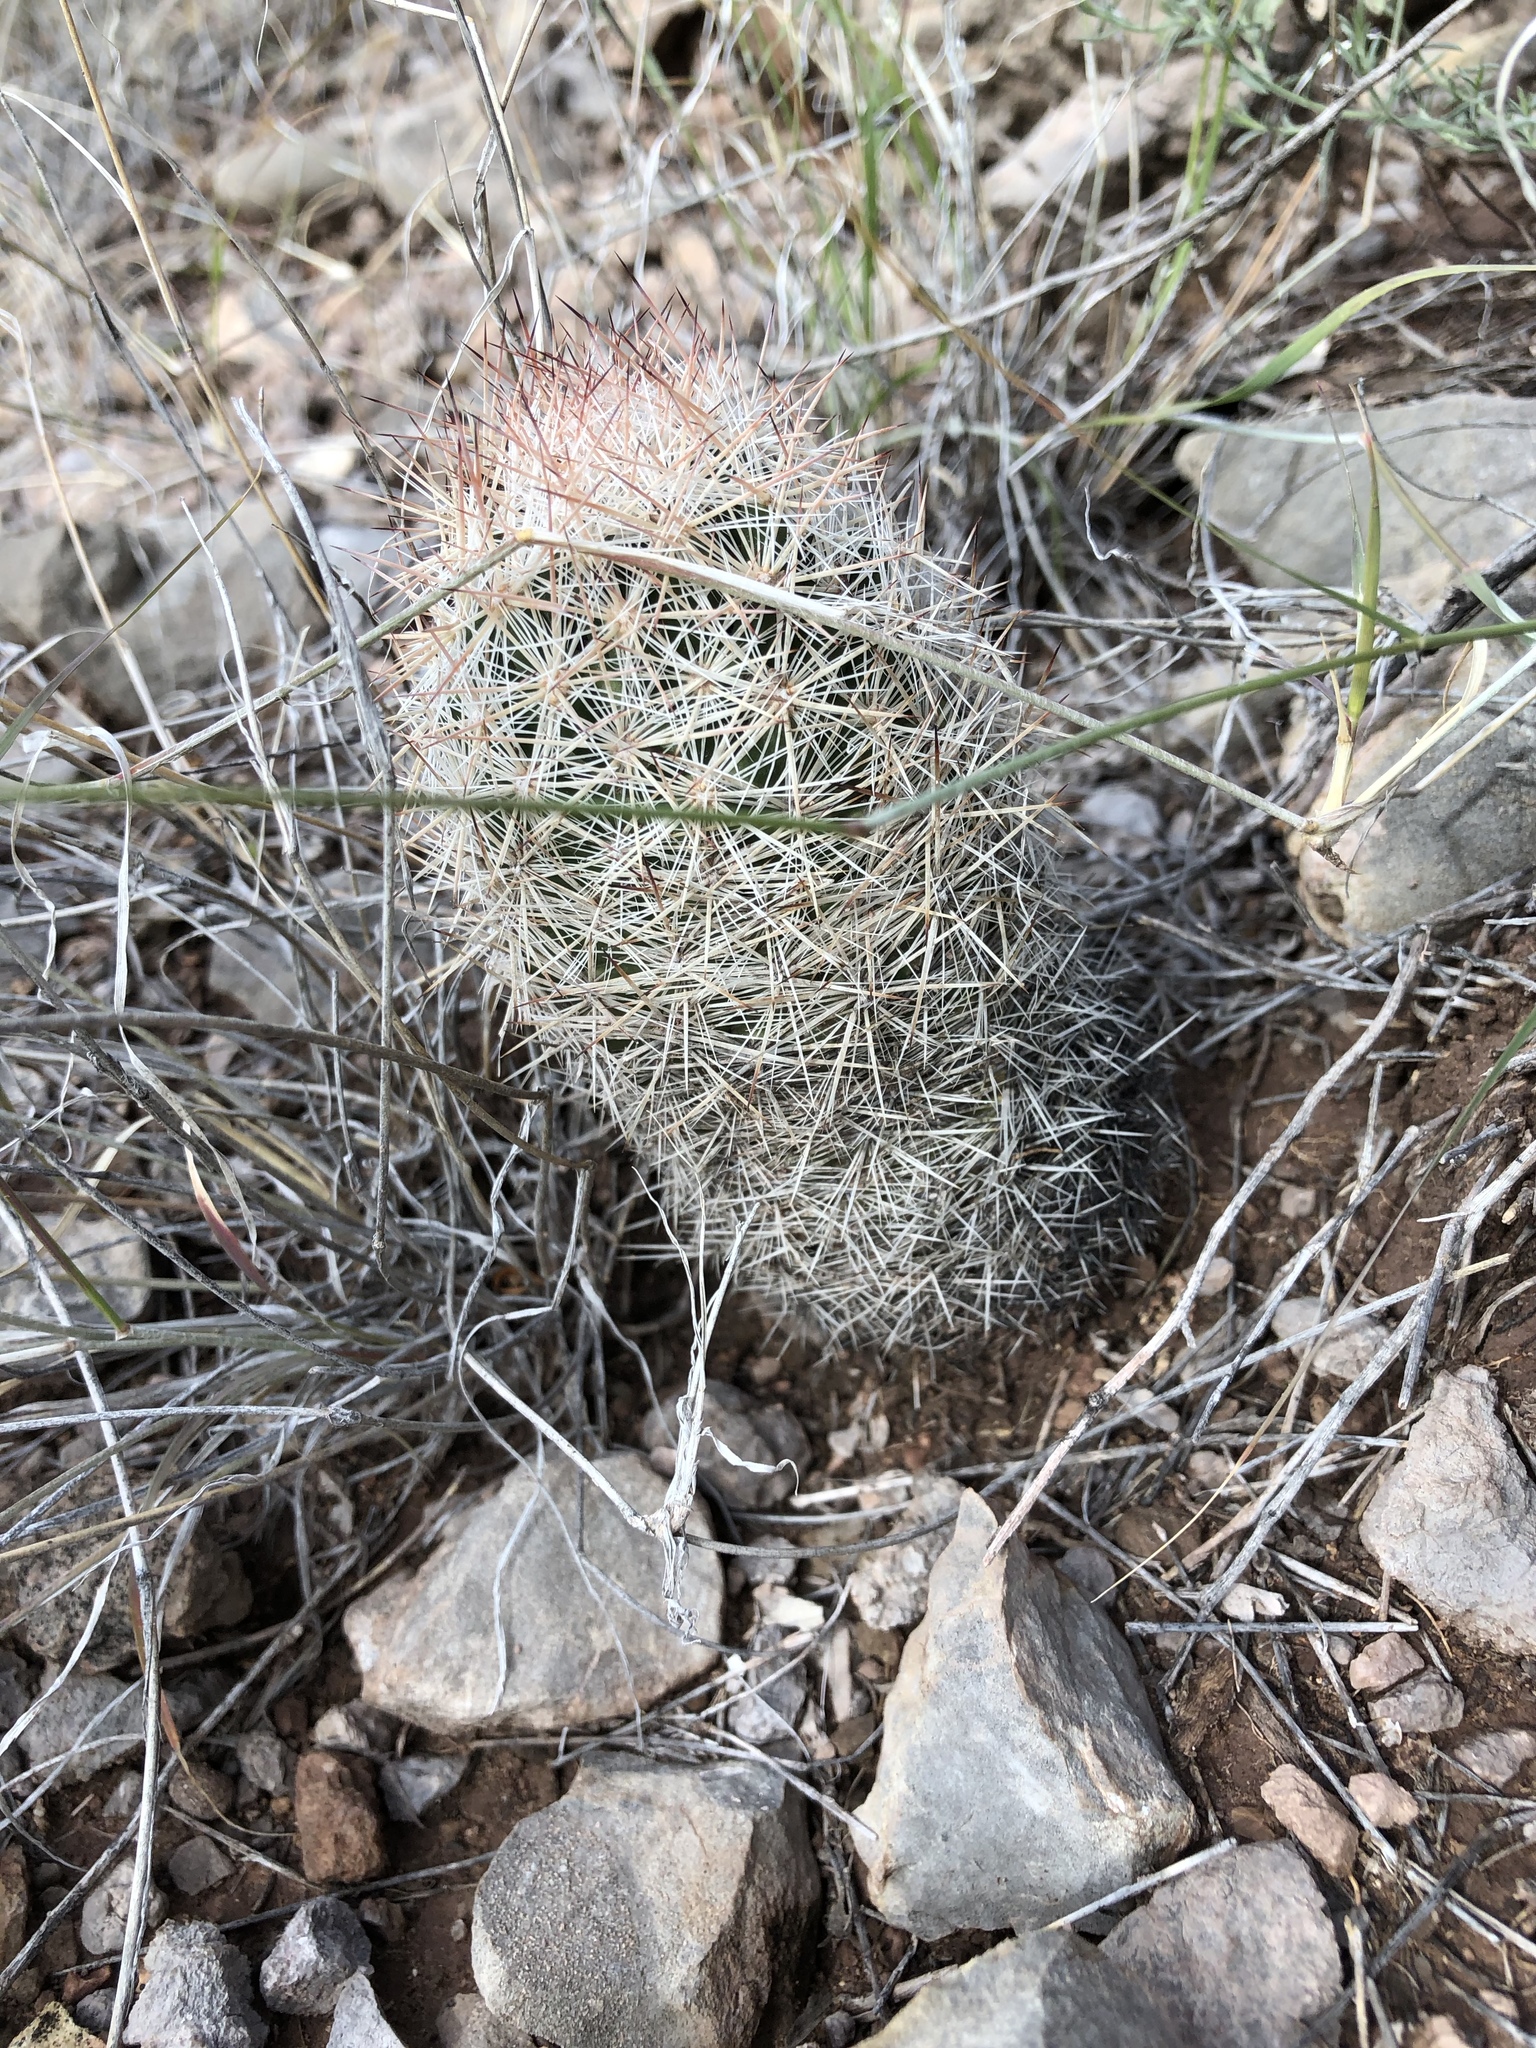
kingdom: Plantae
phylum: Tracheophyta
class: Magnoliopsida
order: Caryophyllales
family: Cactaceae
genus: Pelecyphora
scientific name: Pelecyphora sneedii
